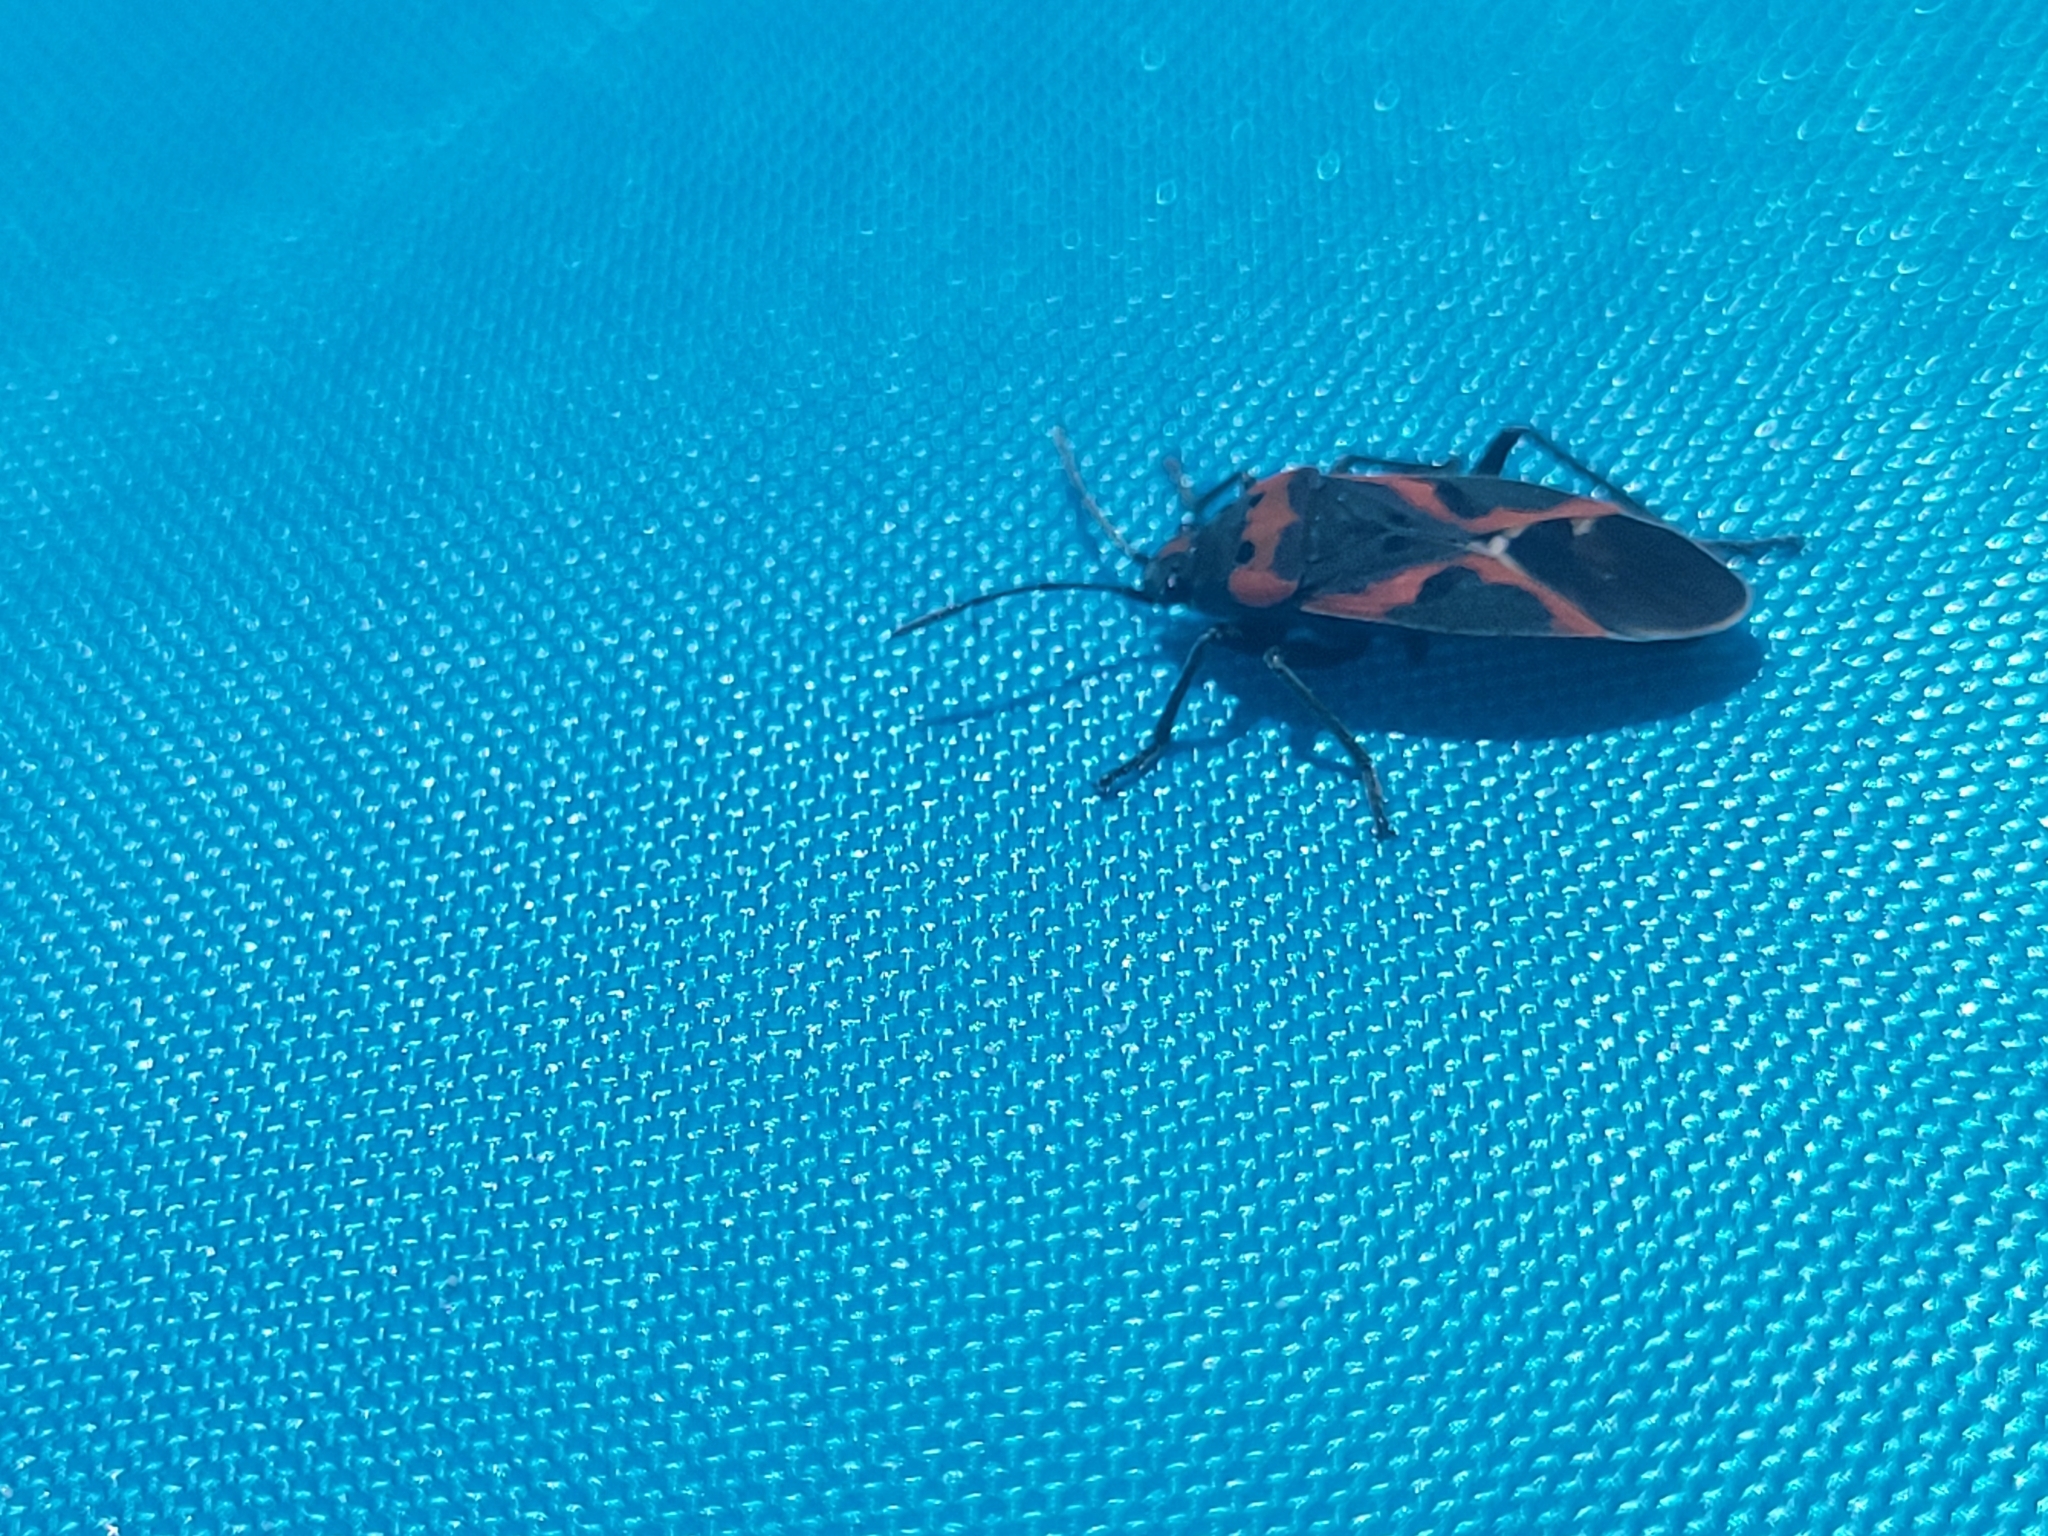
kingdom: Animalia
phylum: Arthropoda
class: Insecta
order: Hemiptera
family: Lygaeidae
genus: Lygaeus
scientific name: Lygaeus kalmii
